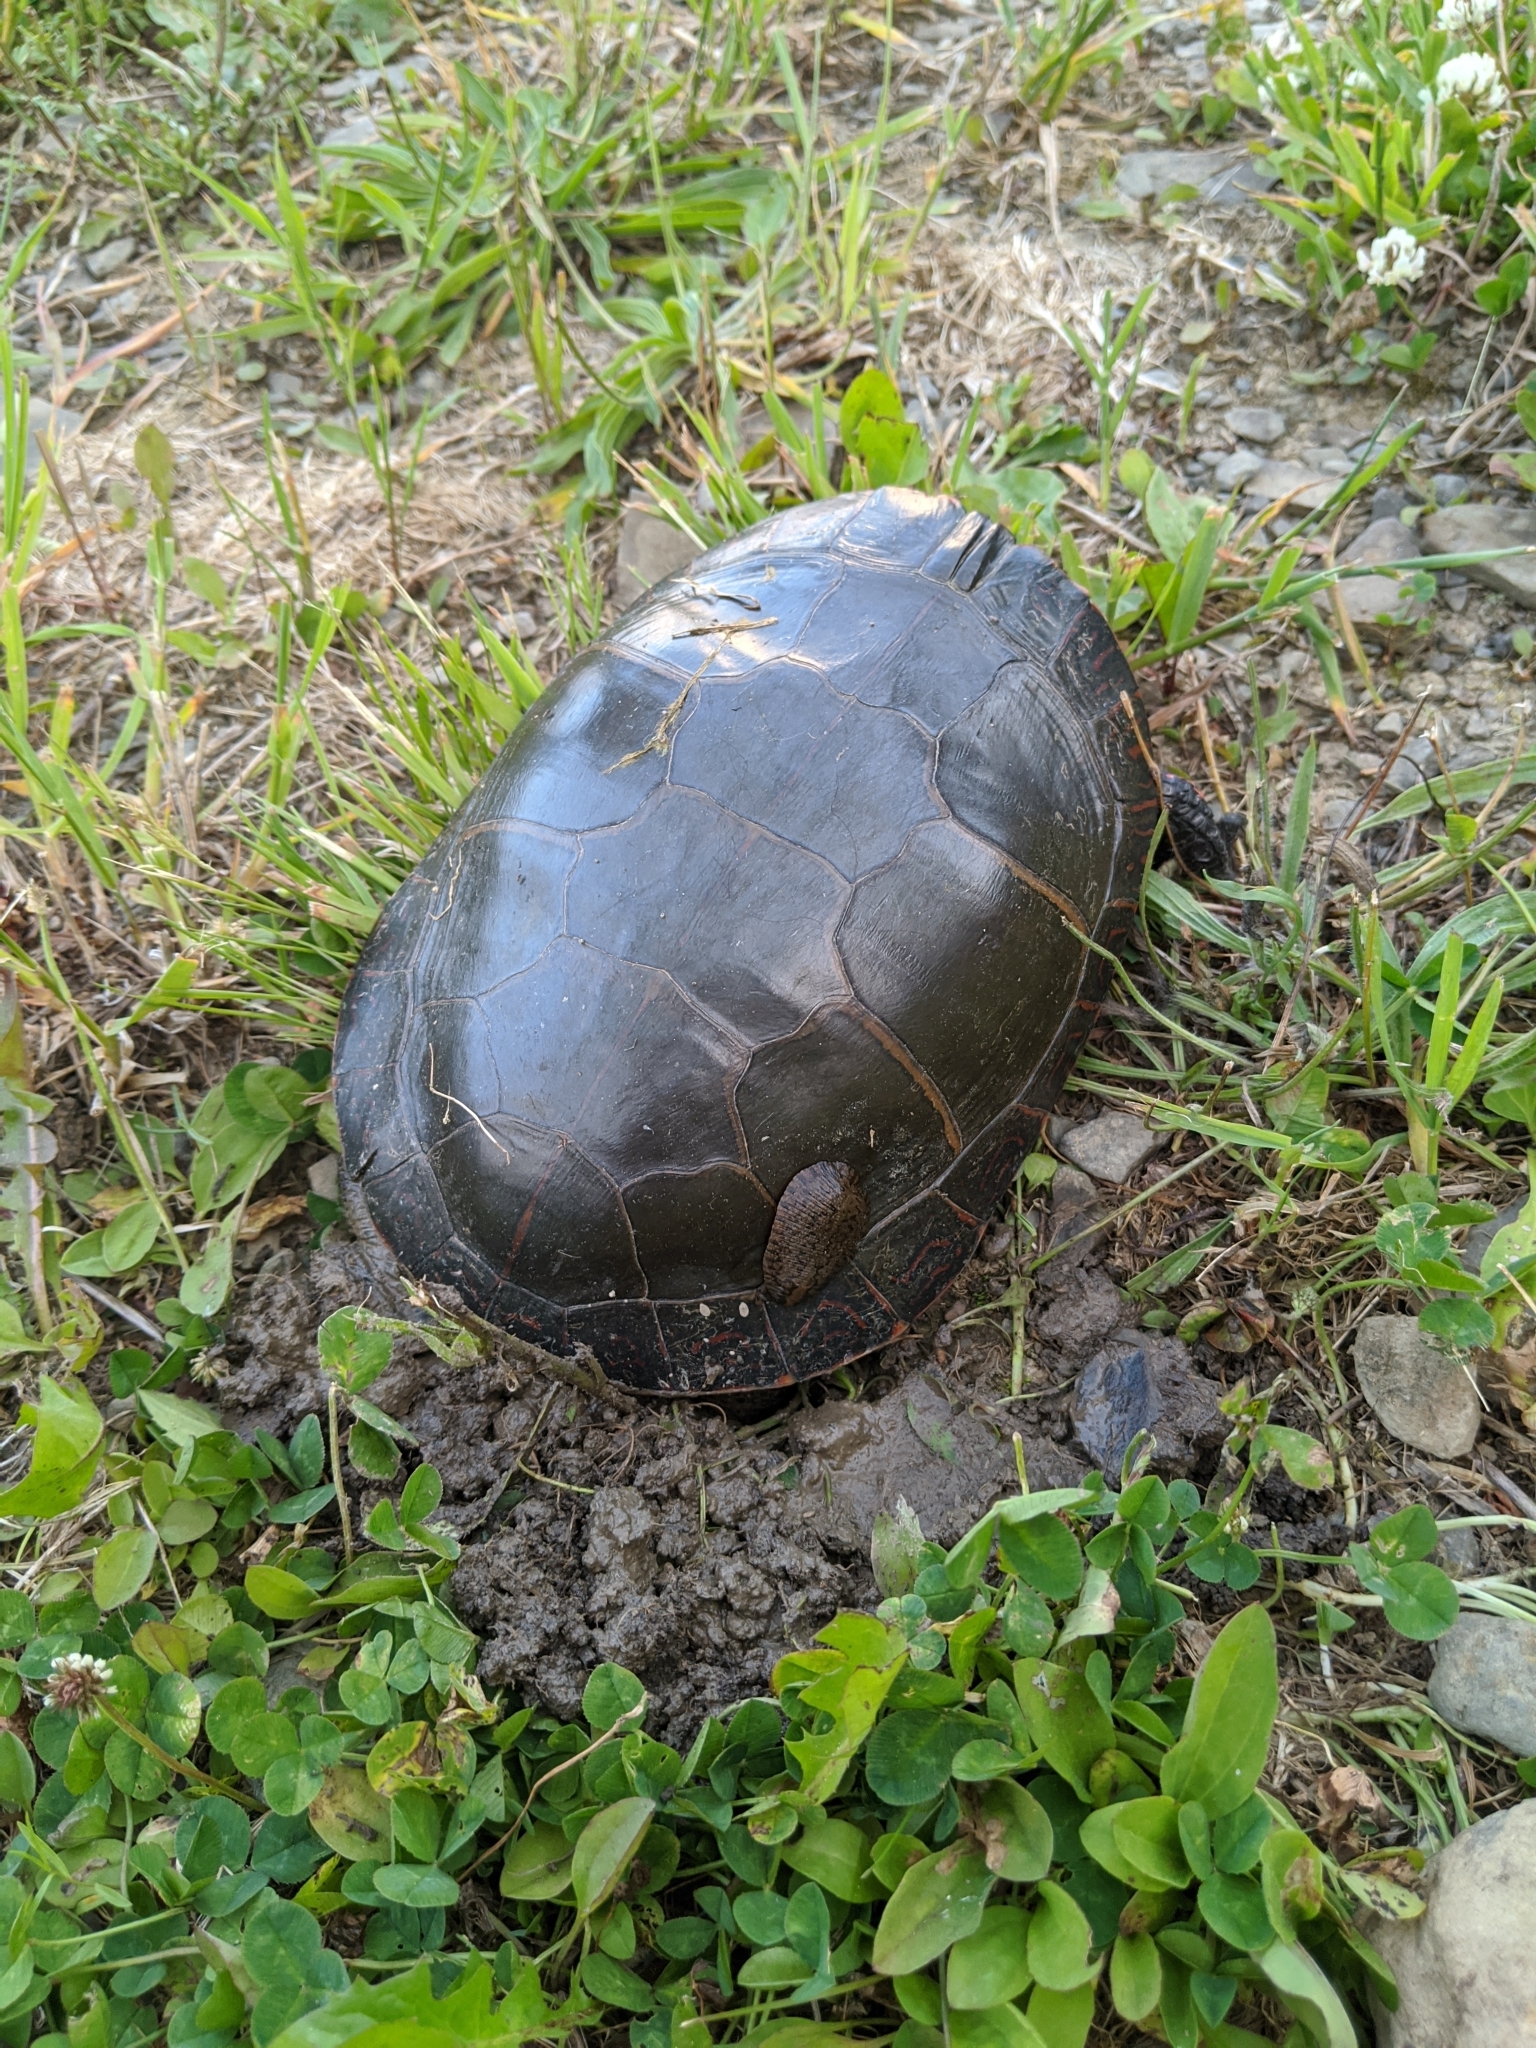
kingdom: Animalia
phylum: Chordata
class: Testudines
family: Emydidae
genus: Chrysemys
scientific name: Chrysemys picta
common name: Painted turtle
